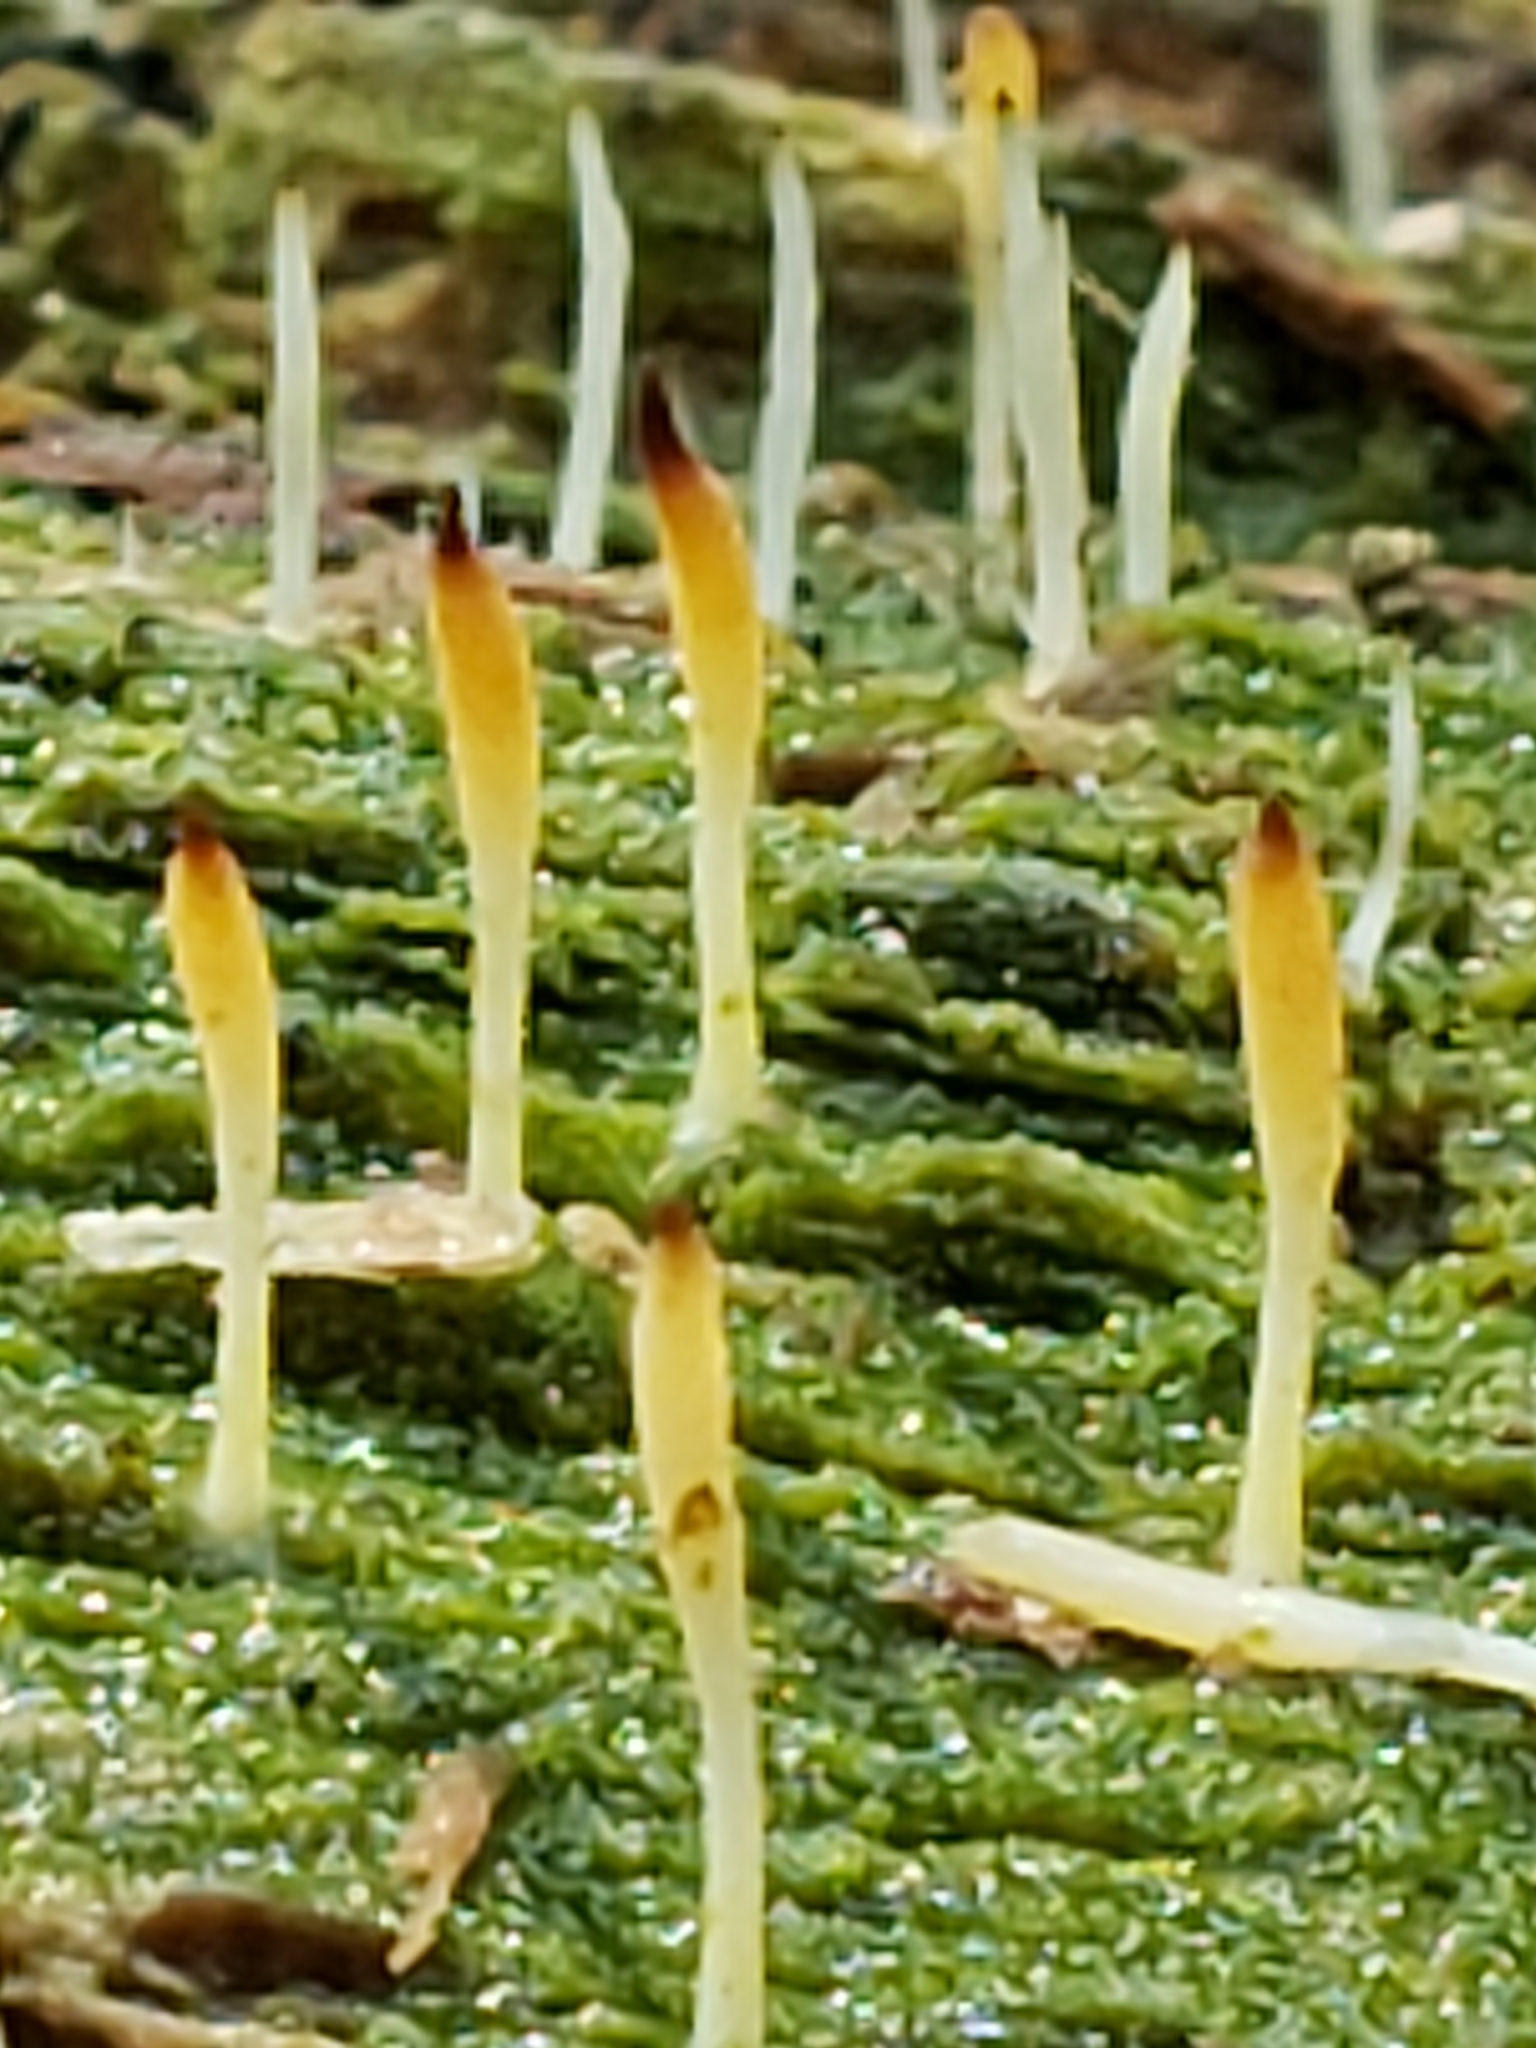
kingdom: Fungi
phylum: Basidiomycota
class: Agaricomycetes
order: Cantharellales
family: Hydnaceae
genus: Multiclavula
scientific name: Multiclavula mucida
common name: White green-algae coral
